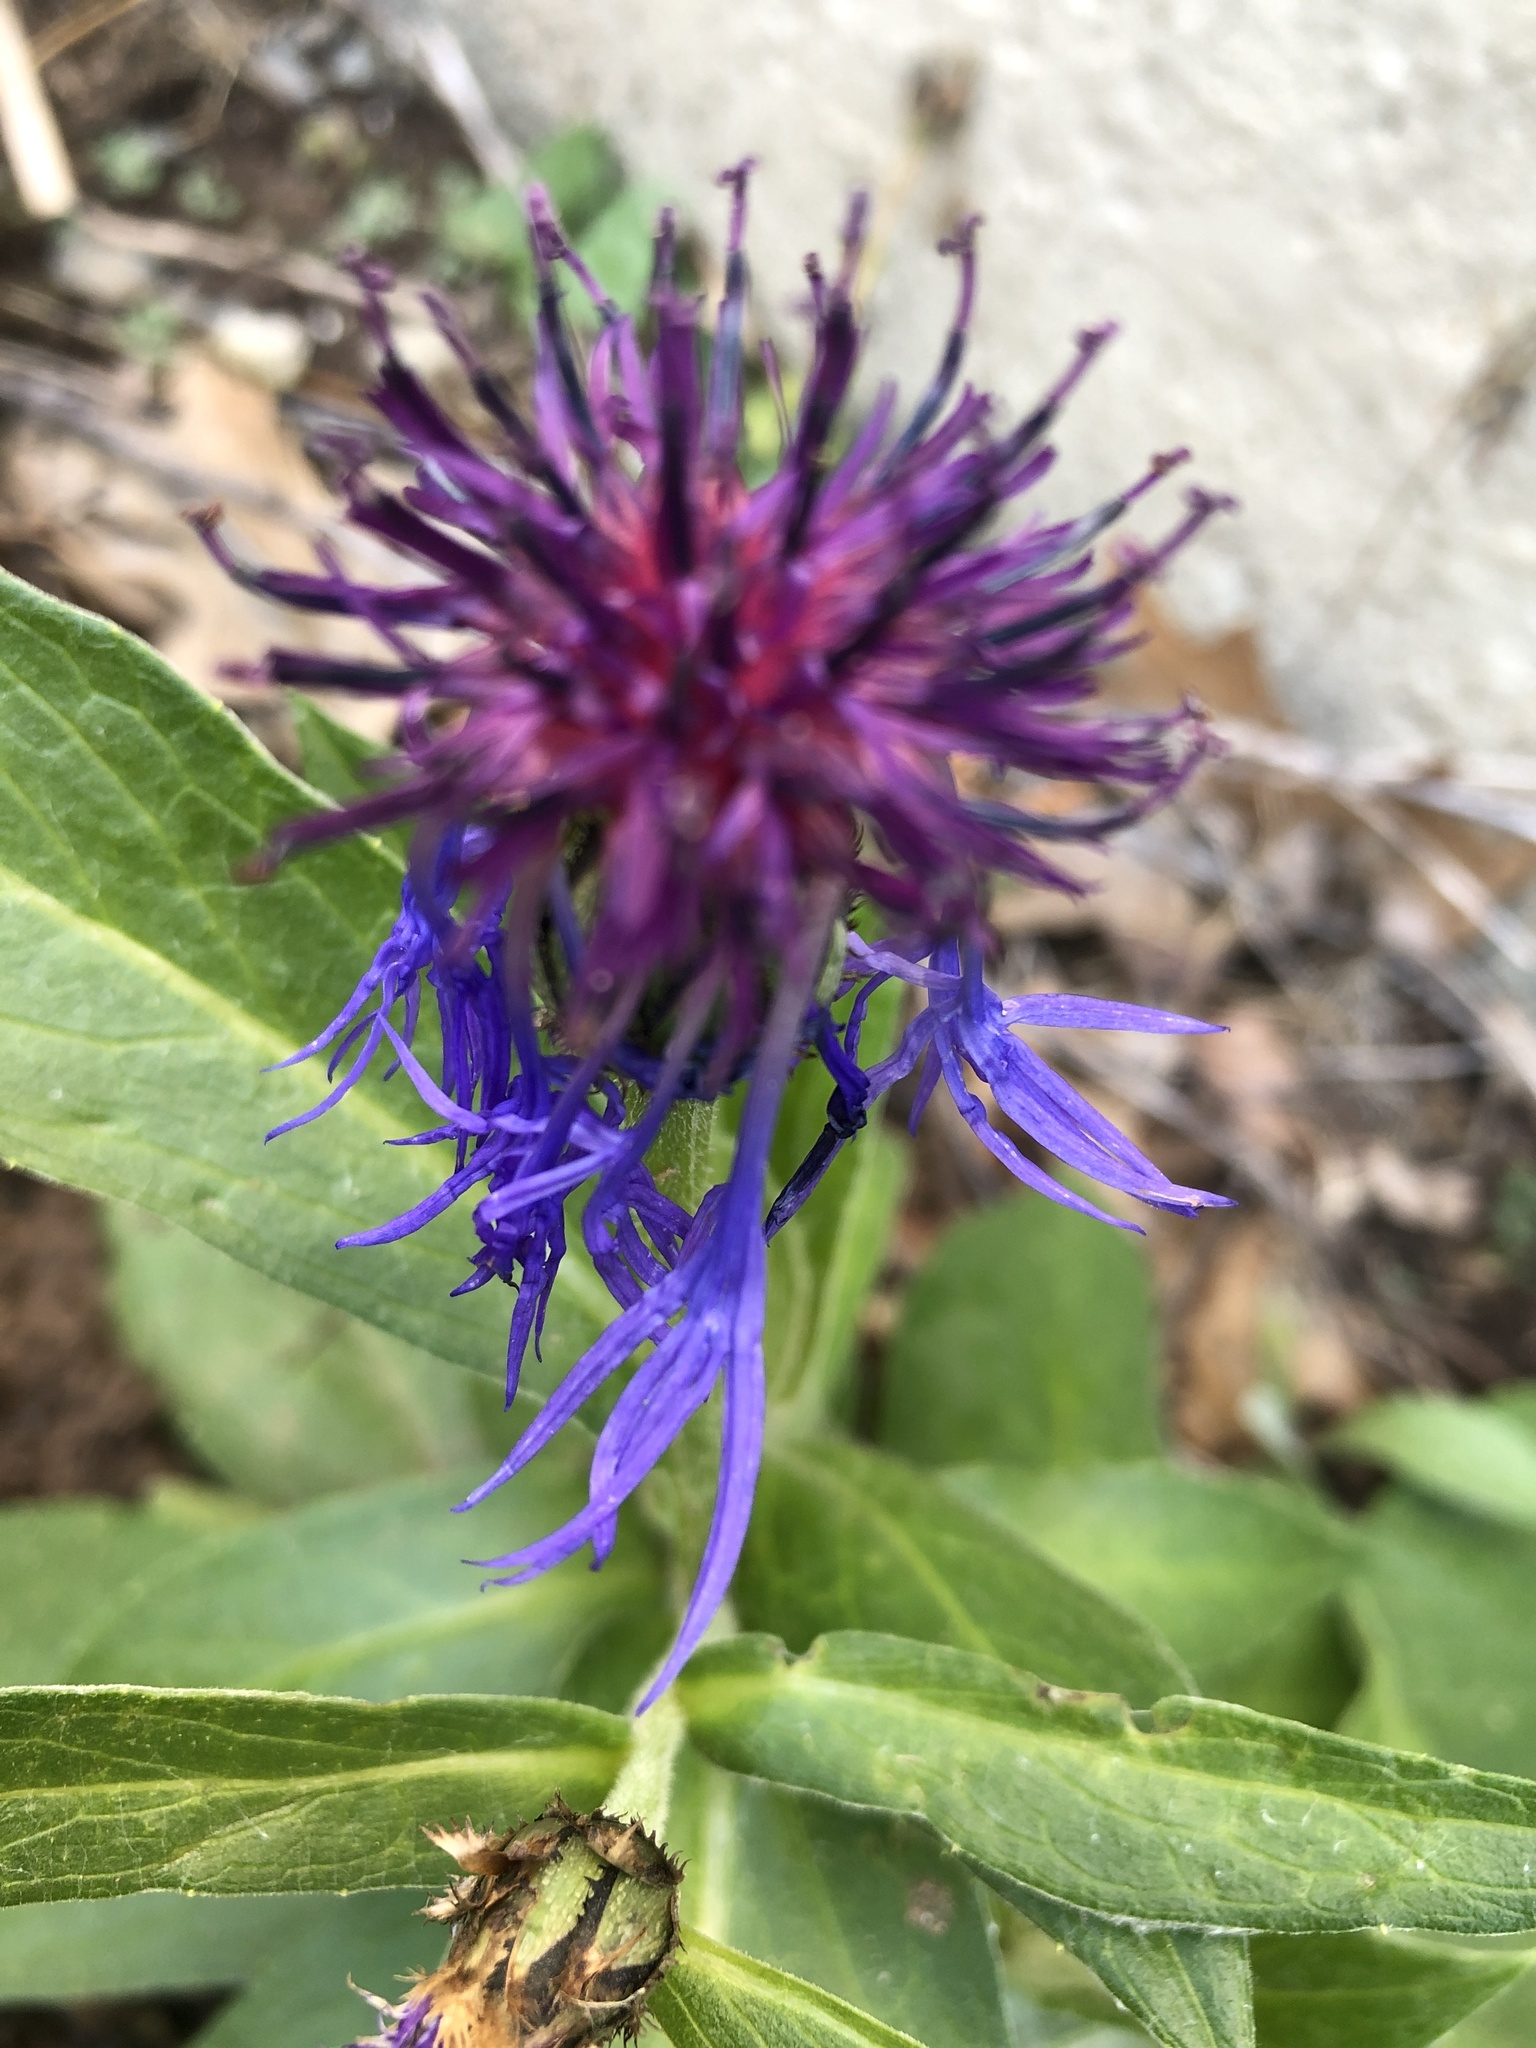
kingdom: Plantae
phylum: Tracheophyta
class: Magnoliopsida
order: Asterales
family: Asteraceae
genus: Centaurea
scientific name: Centaurea montana
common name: Perennial cornflower
